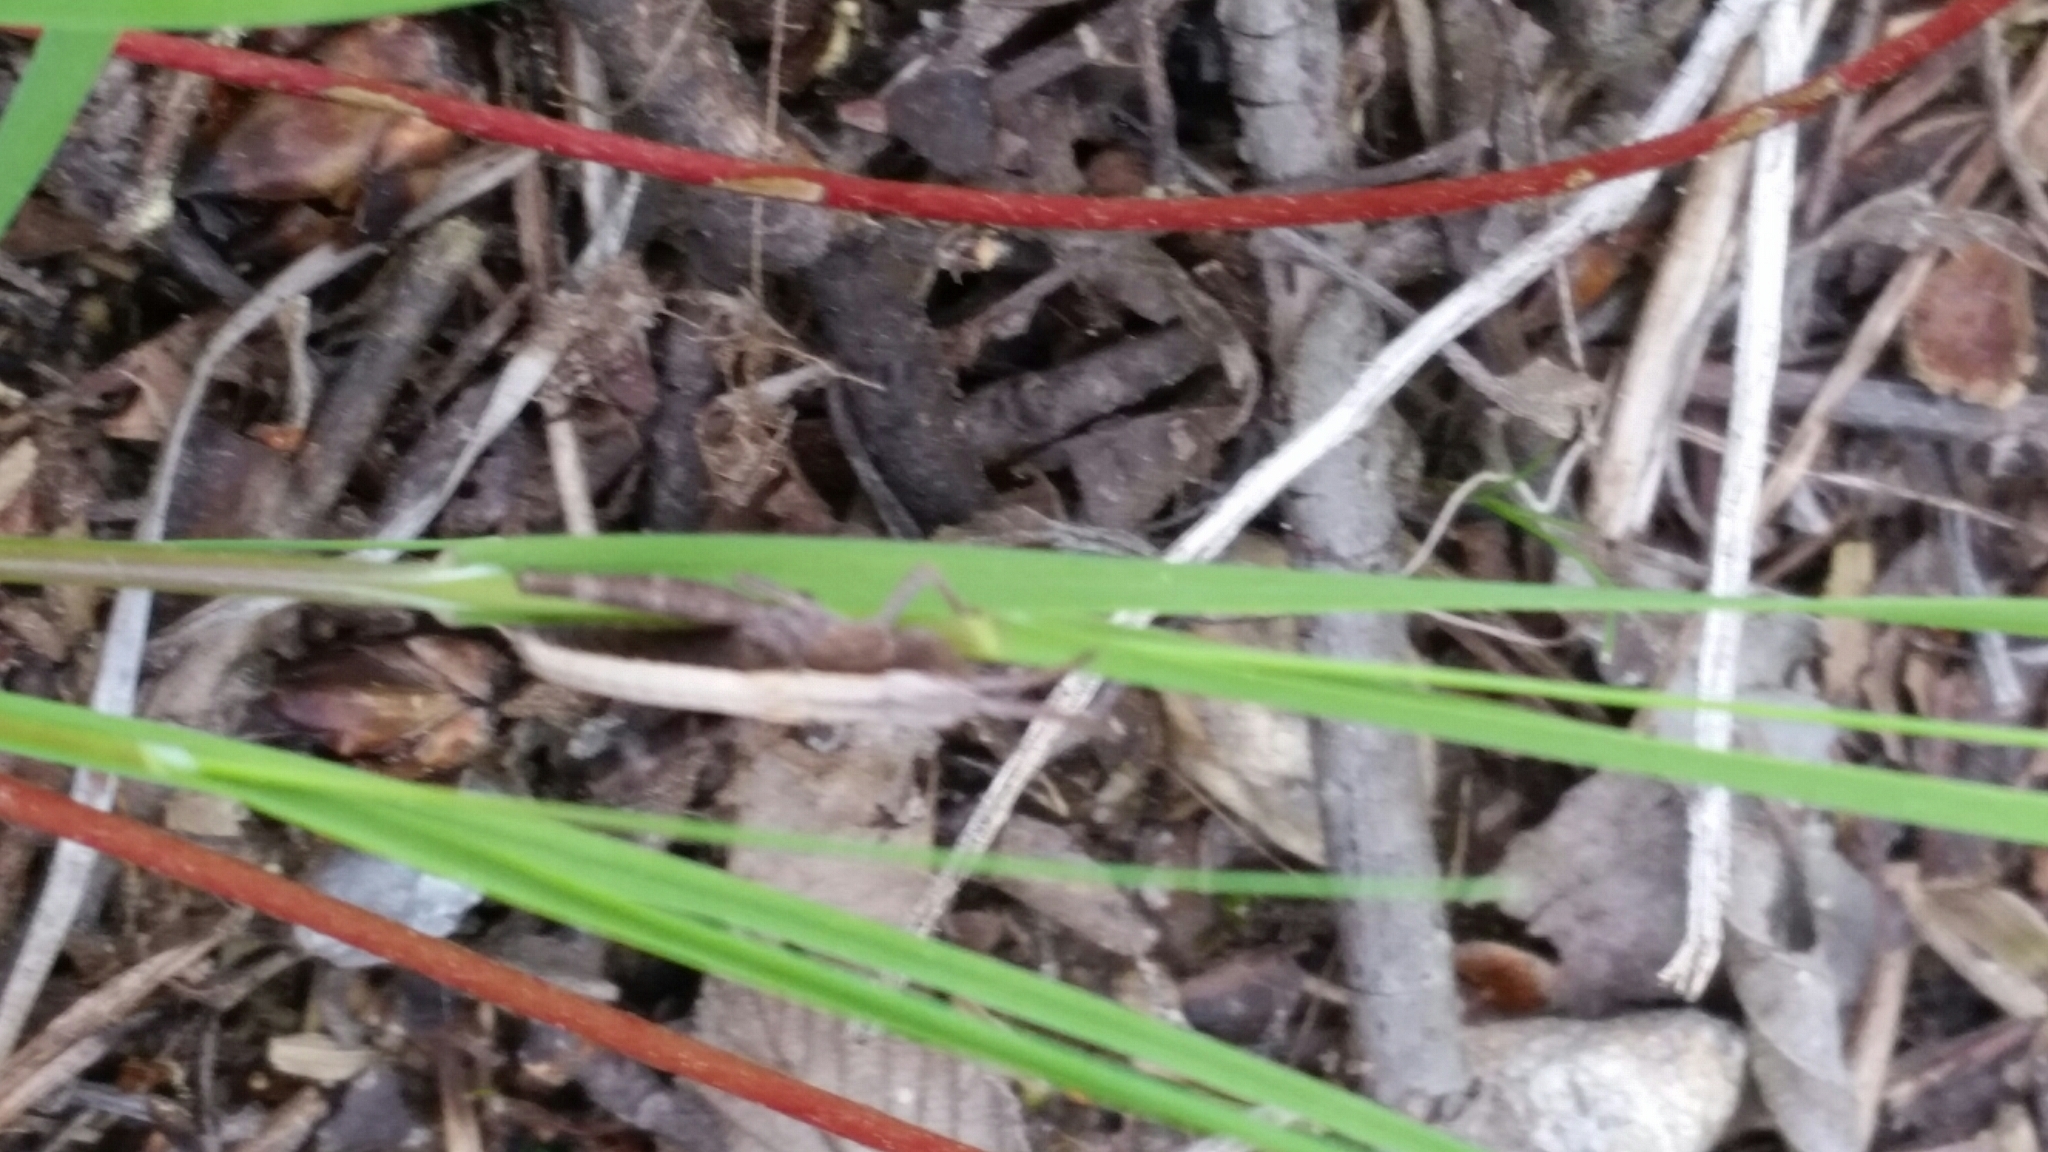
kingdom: Animalia
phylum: Arthropoda
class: Insecta
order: Orthoptera
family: Acrididae
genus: Chloealtis
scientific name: Chloealtis conspersa
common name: Sprinkled broad-winged grasshopper
